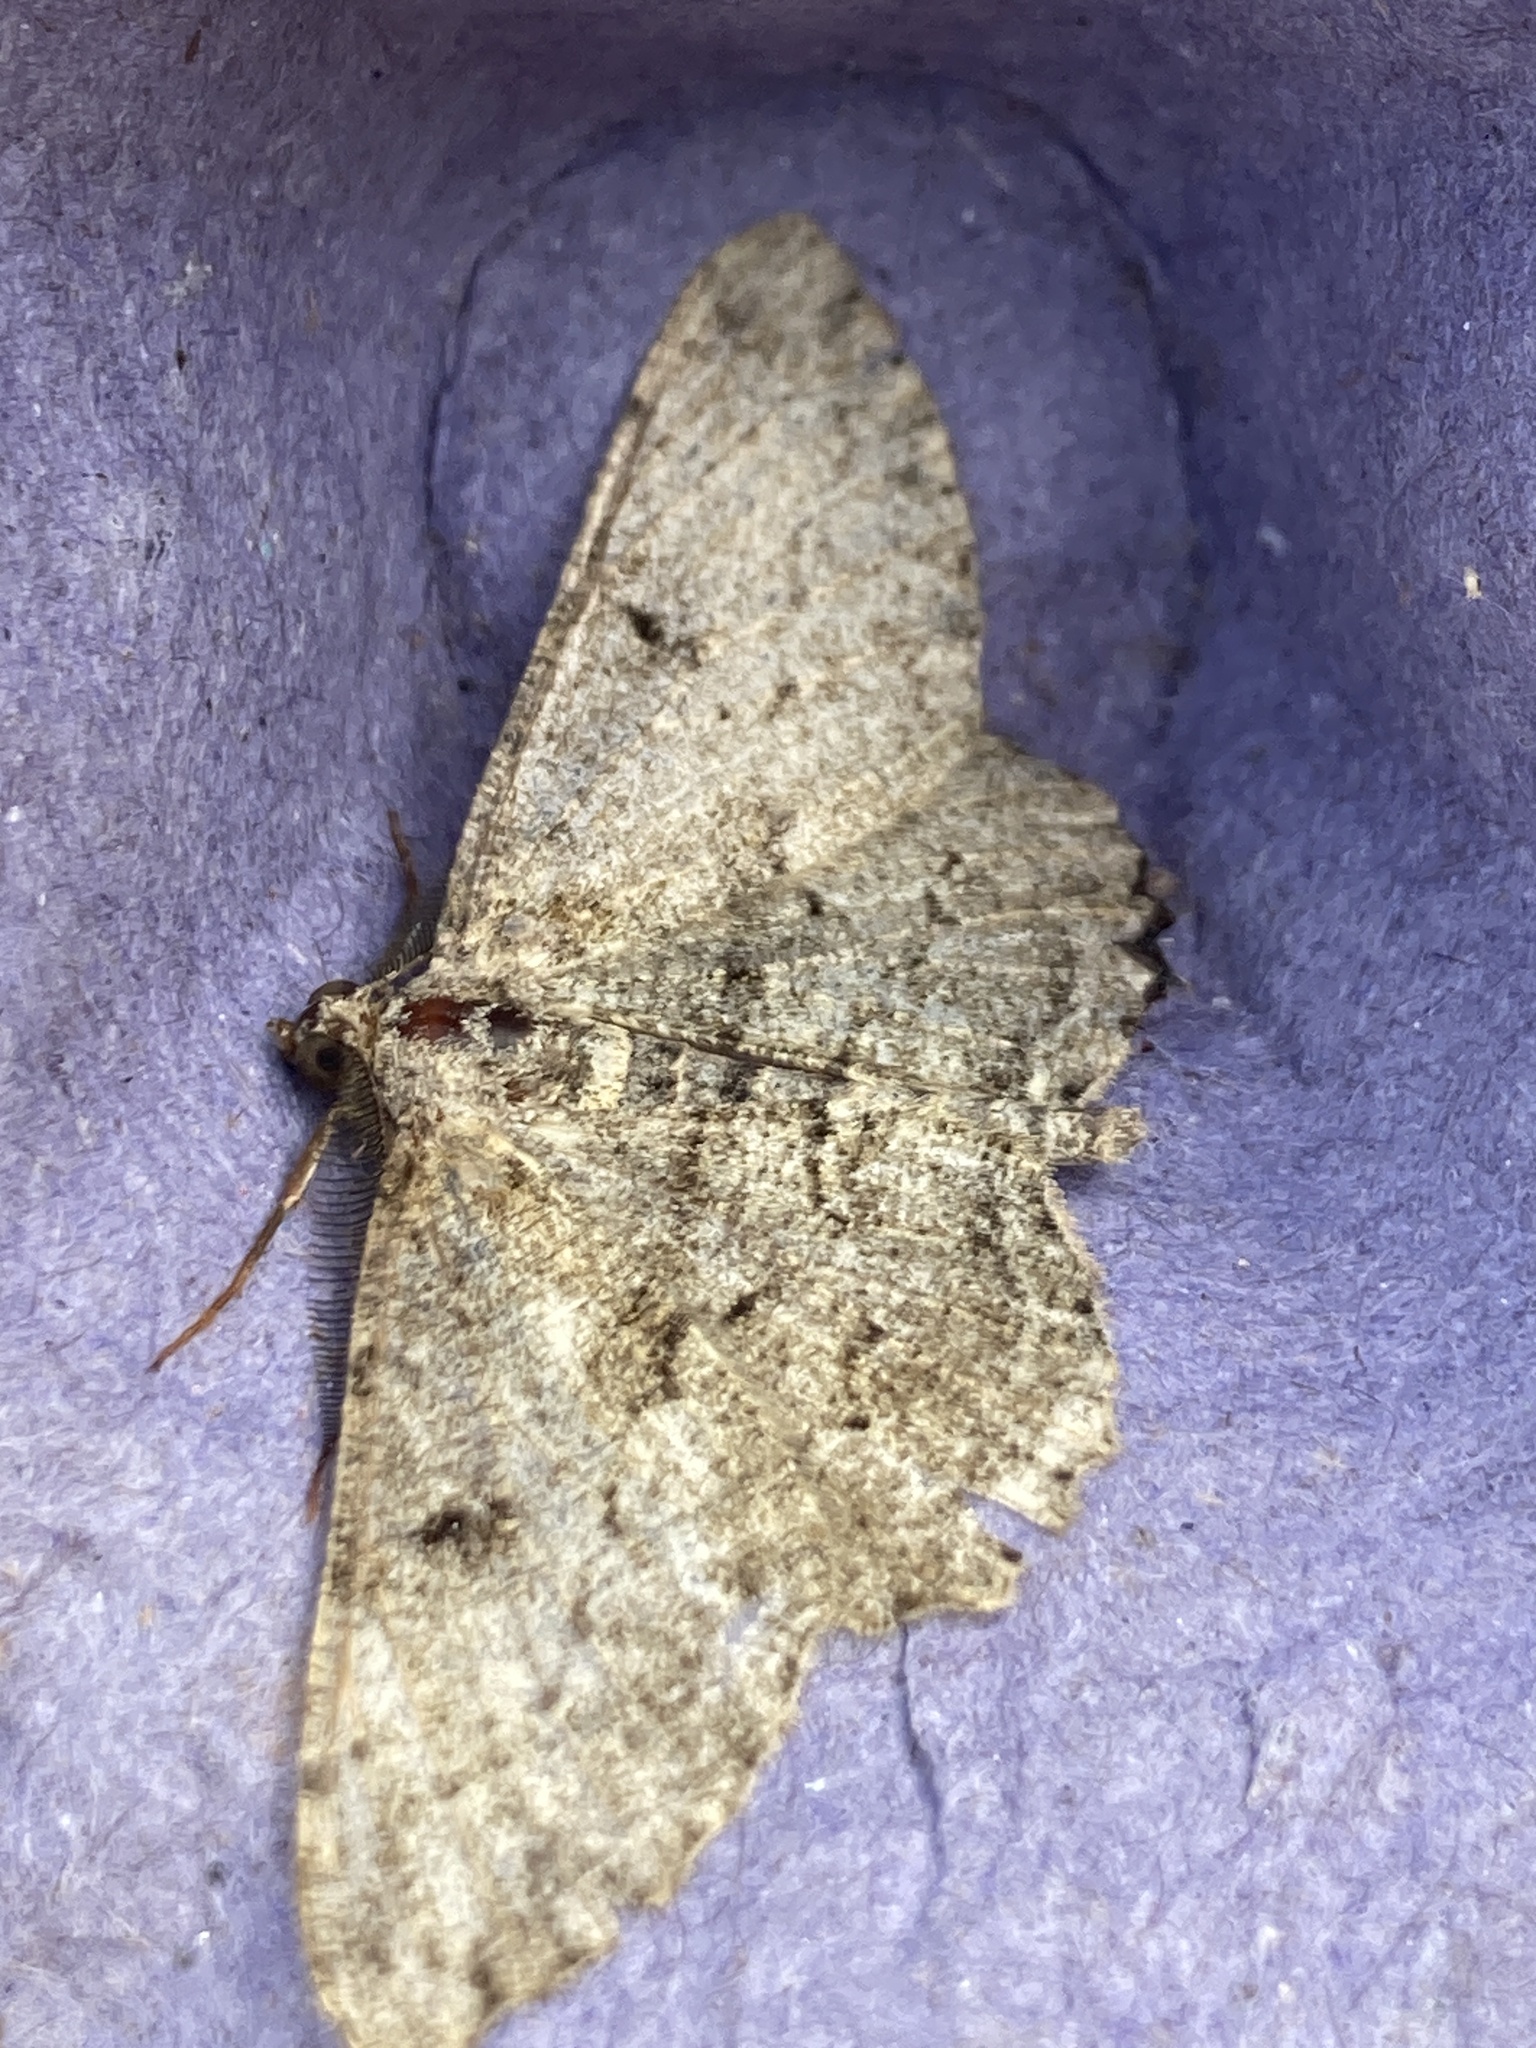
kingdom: Animalia
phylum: Arthropoda
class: Insecta
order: Lepidoptera
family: Geometridae
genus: Peribatodes
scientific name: Peribatodes rhomboidaria
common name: Willow beauty
